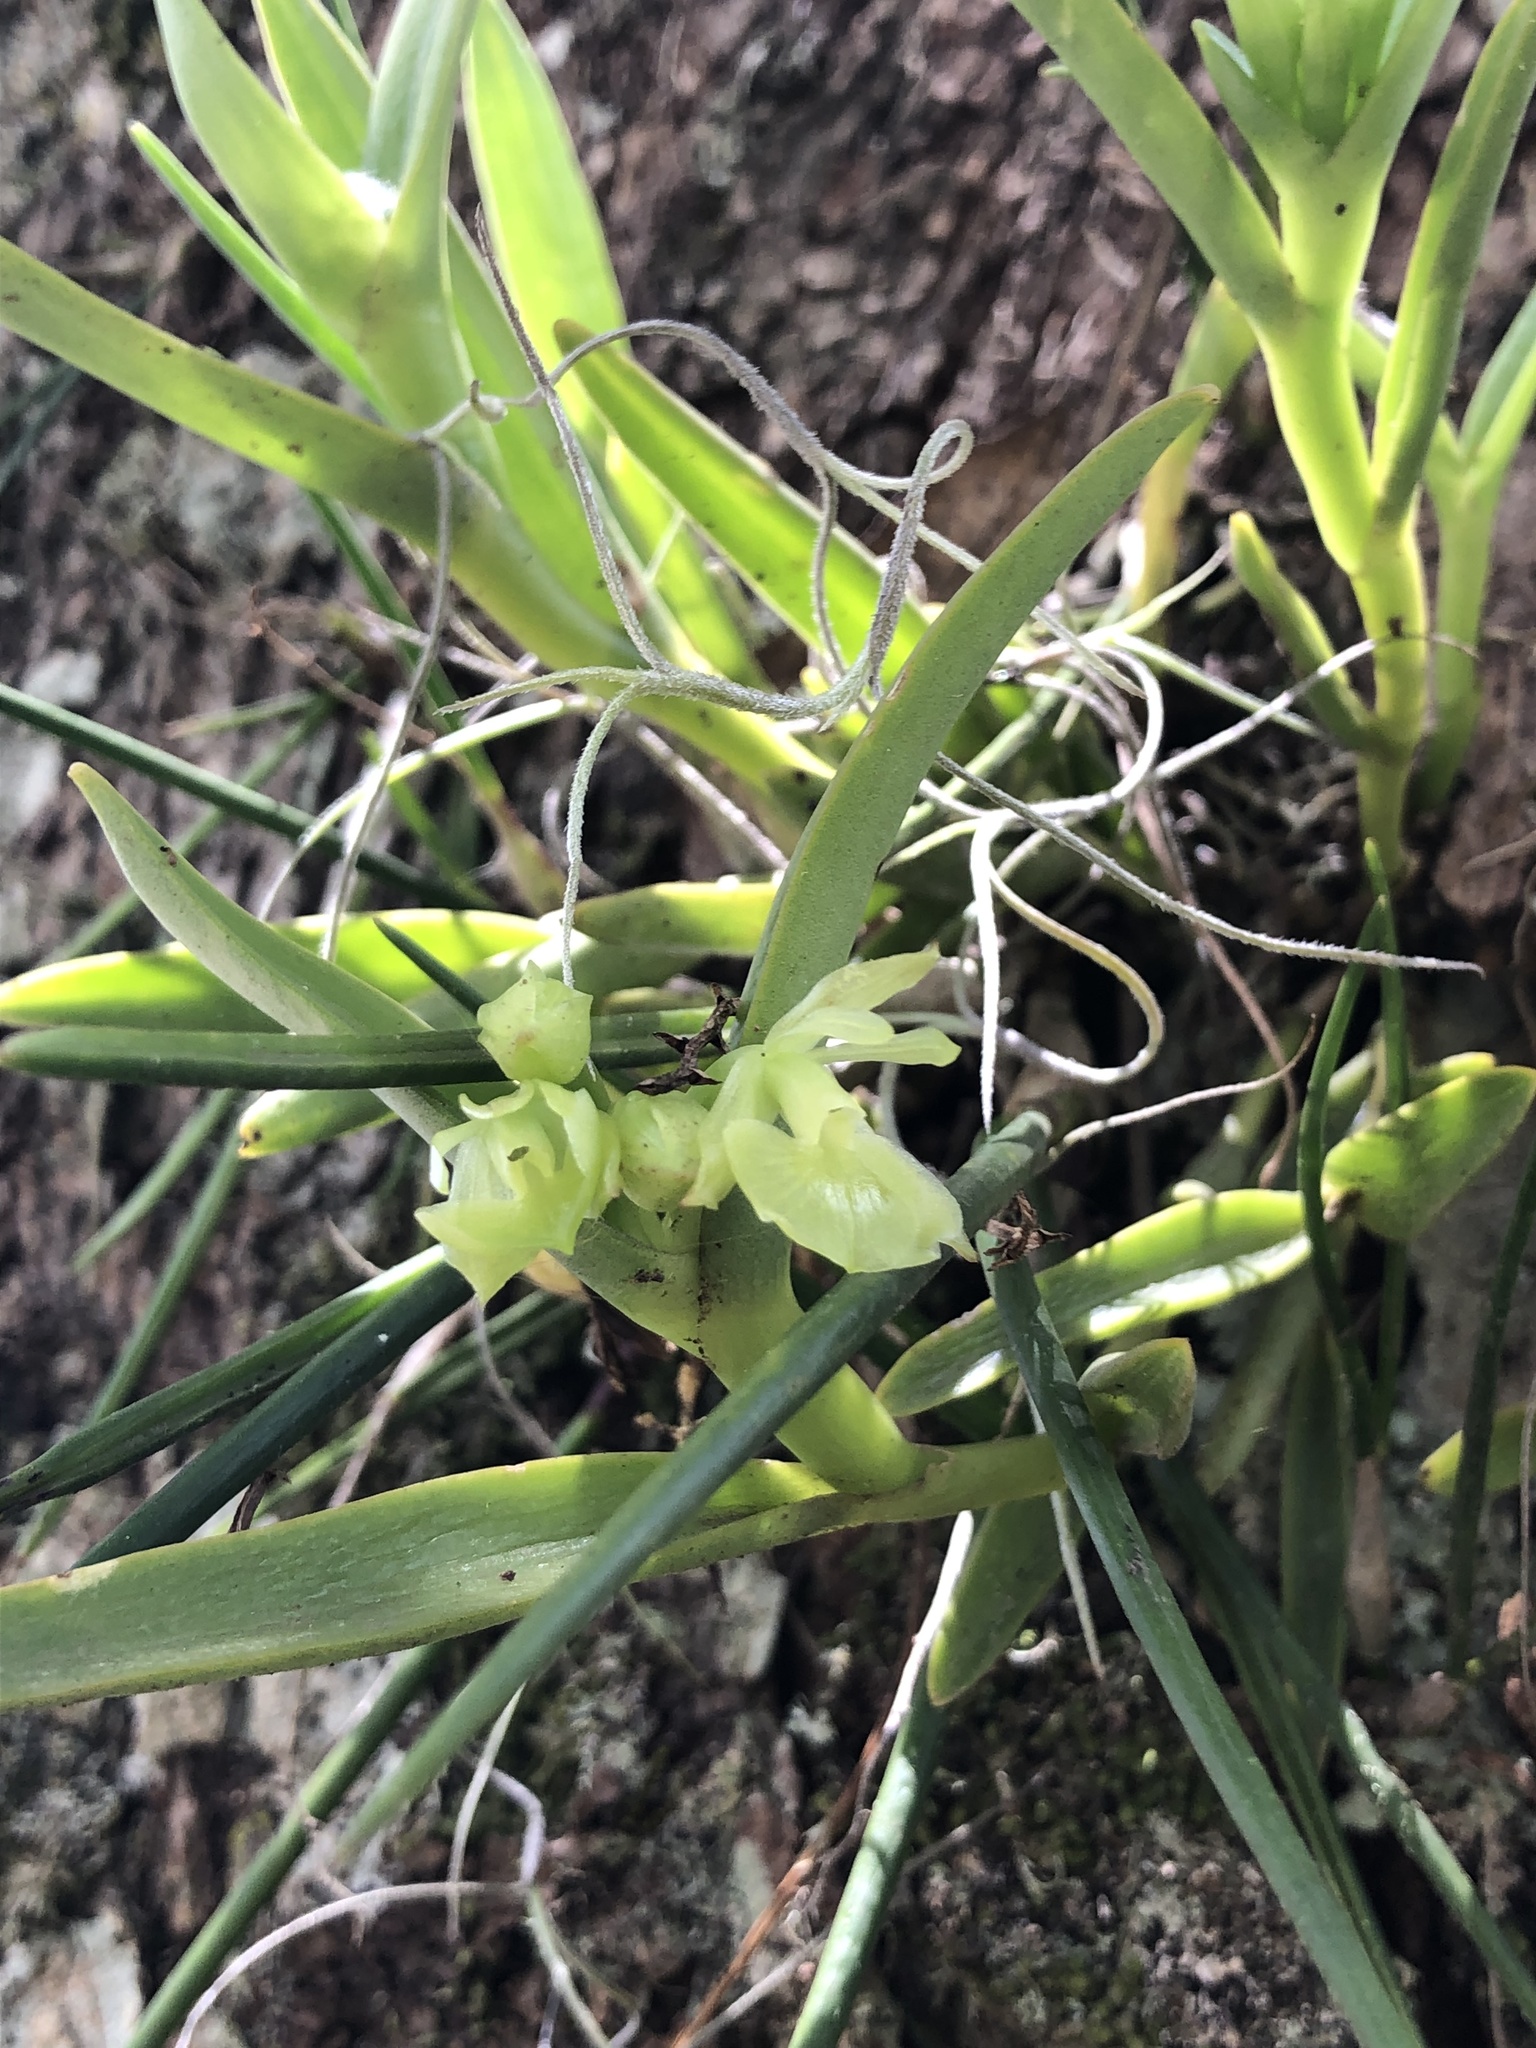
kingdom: Plantae
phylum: Tracheophyta
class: Liliopsida
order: Asparagales
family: Orchidaceae
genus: Epidendrum
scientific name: Epidendrum scharfii
